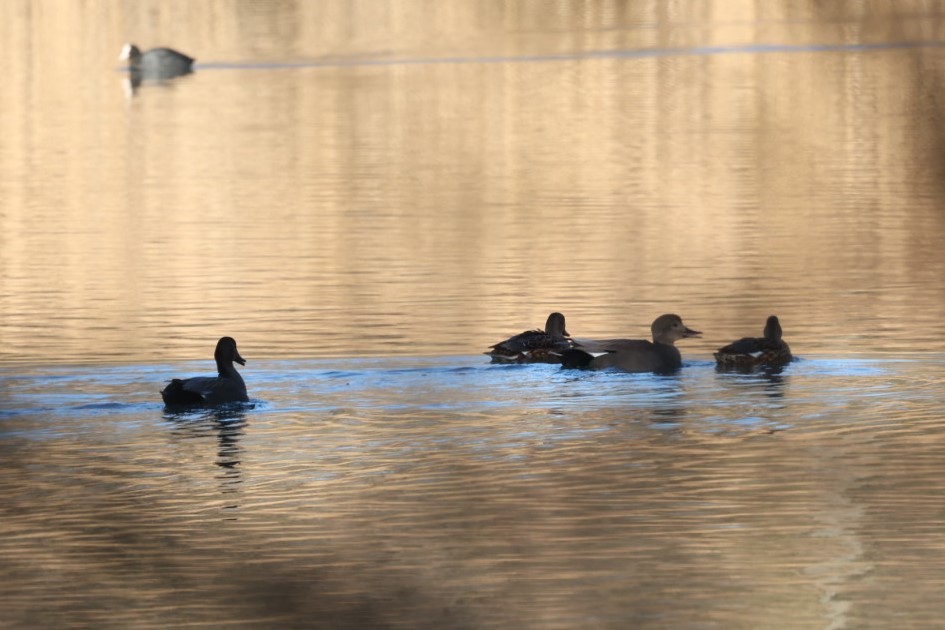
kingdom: Animalia
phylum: Chordata
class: Aves
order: Anseriformes
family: Anatidae
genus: Mareca
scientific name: Mareca strepera
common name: Gadwall
